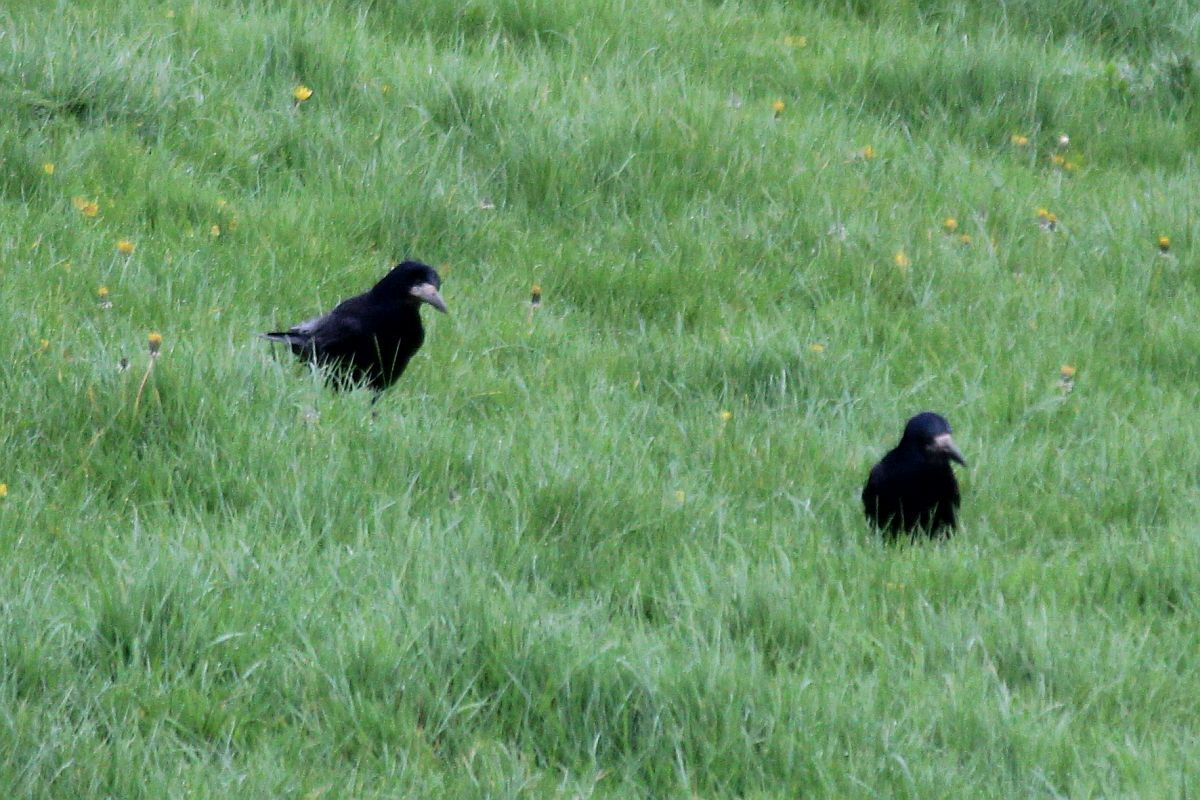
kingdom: Animalia
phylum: Chordata
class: Aves
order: Passeriformes
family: Corvidae
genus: Corvus
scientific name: Corvus frugilegus
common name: Rook
